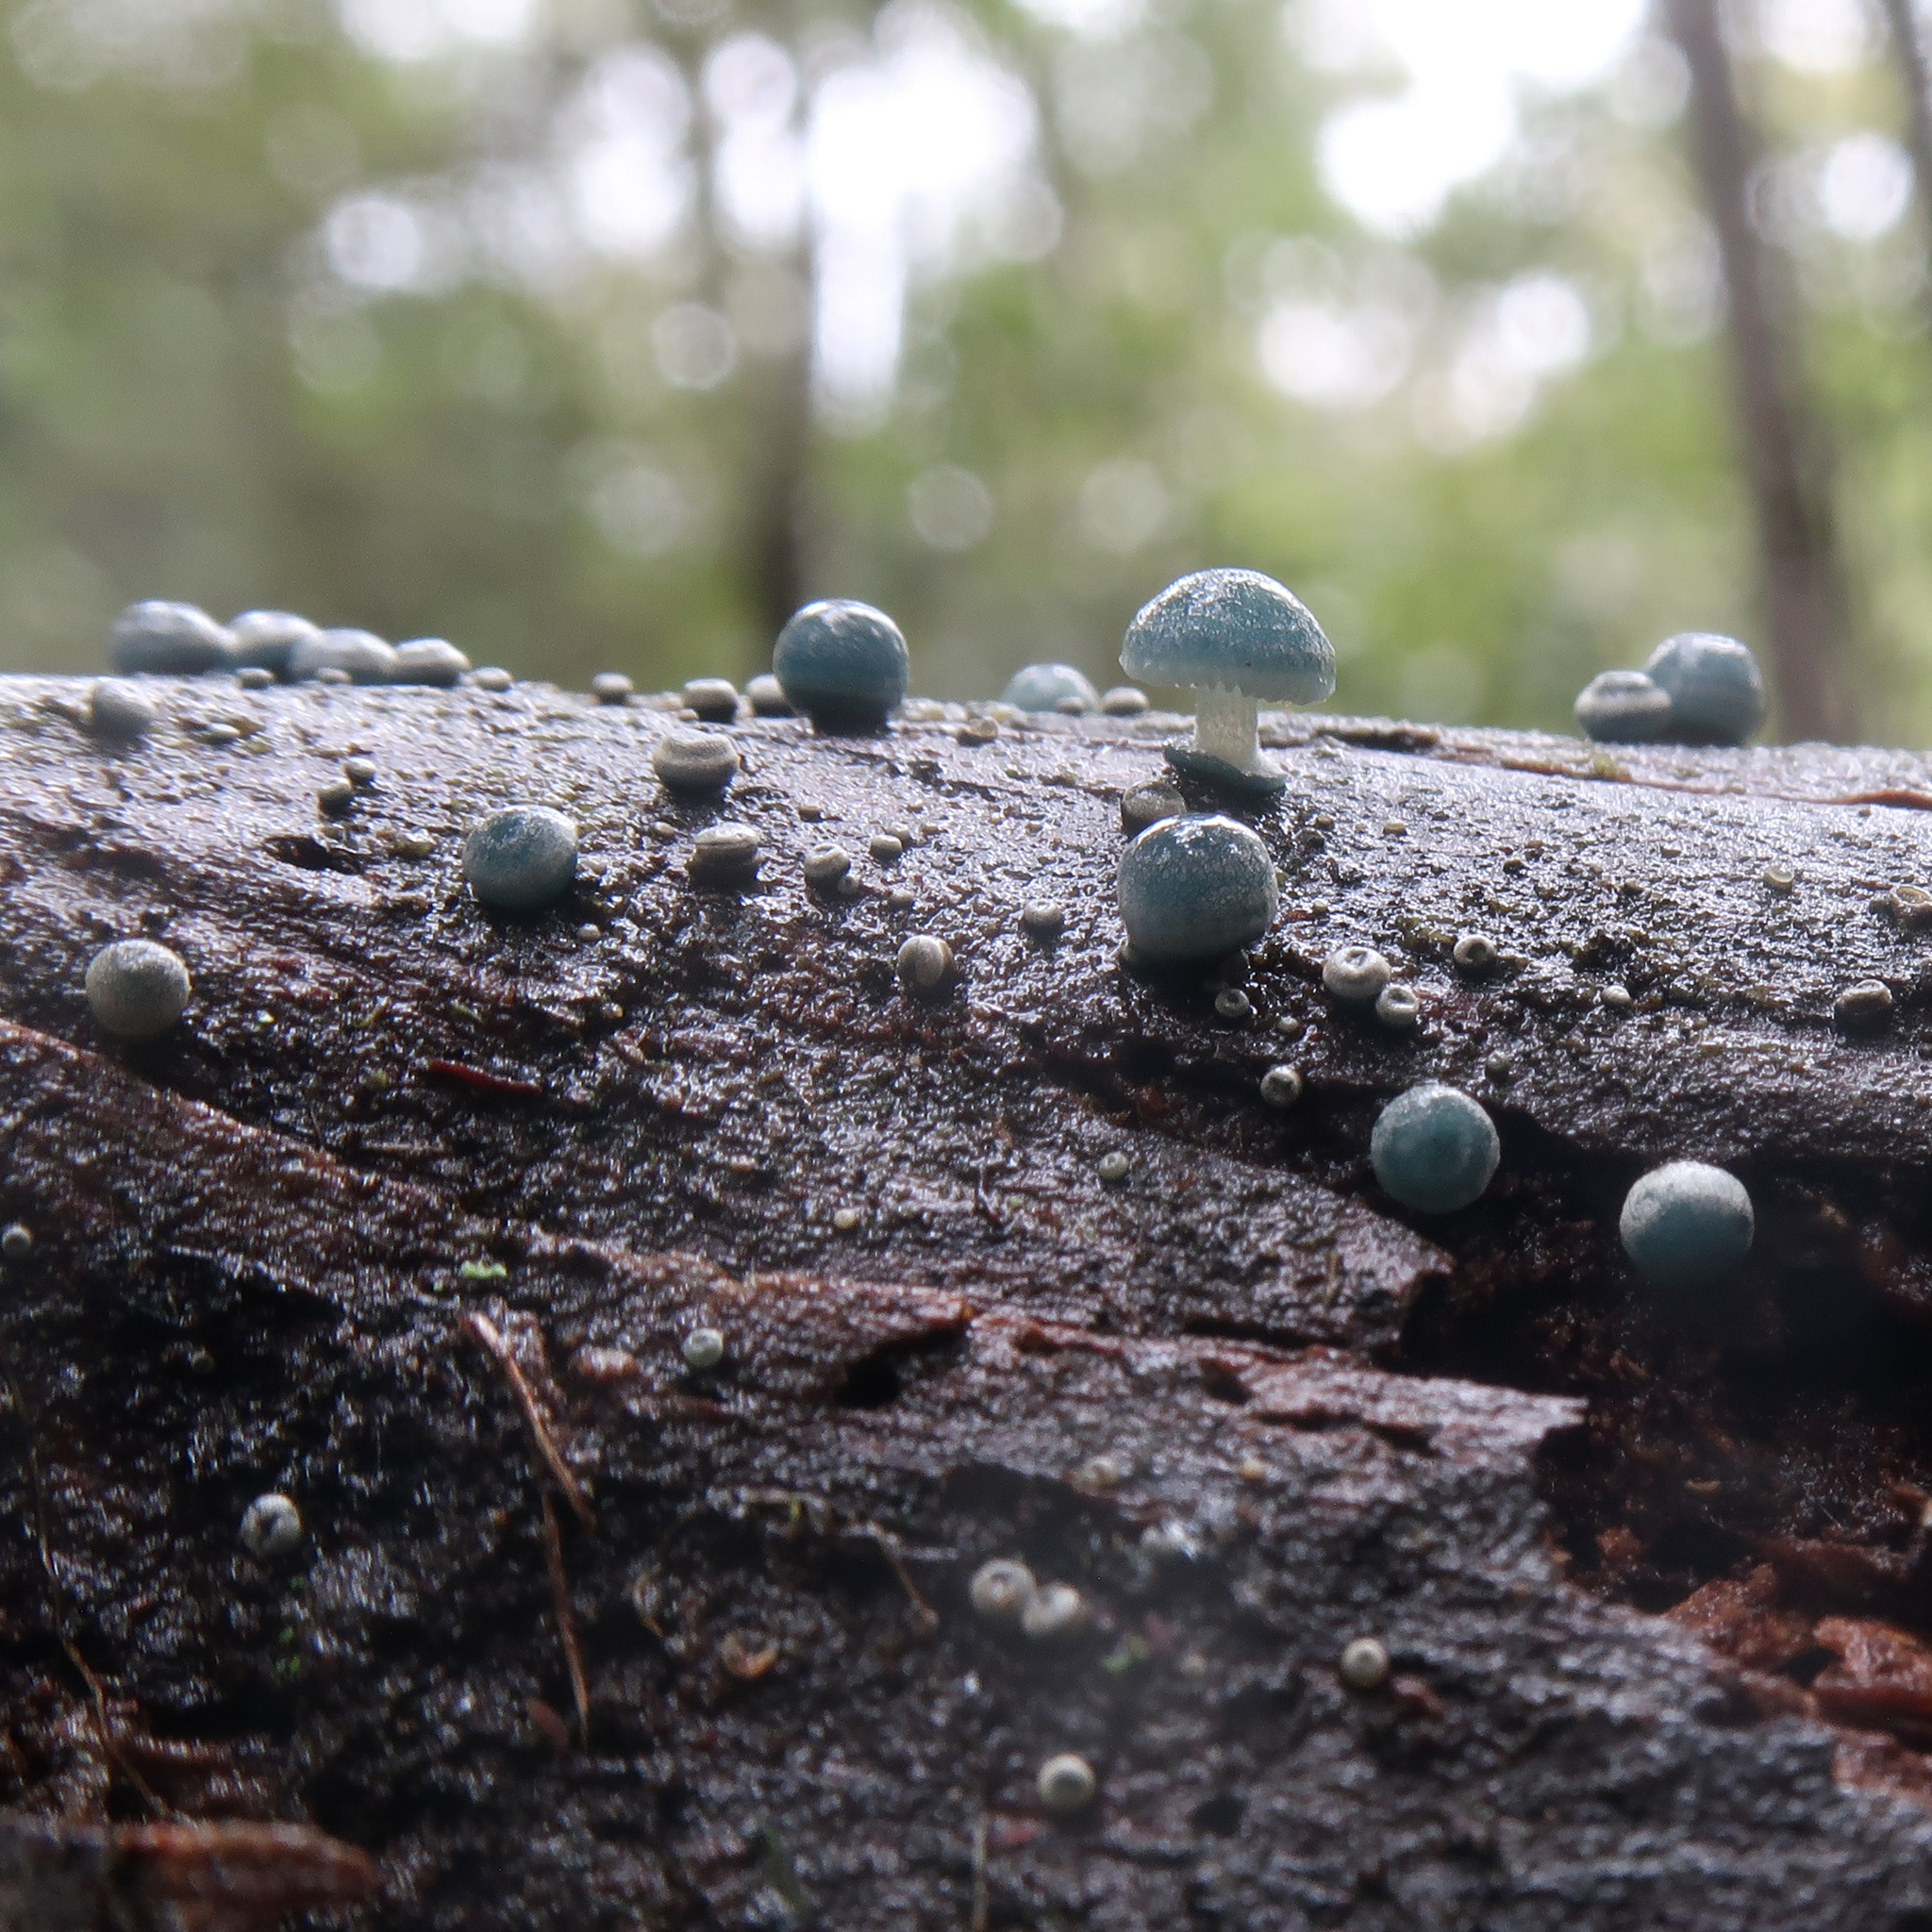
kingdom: Fungi
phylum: Basidiomycota
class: Agaricomycetes
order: Agaricales
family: Mycenaceae
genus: Mycena
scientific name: Mycena interrupta
